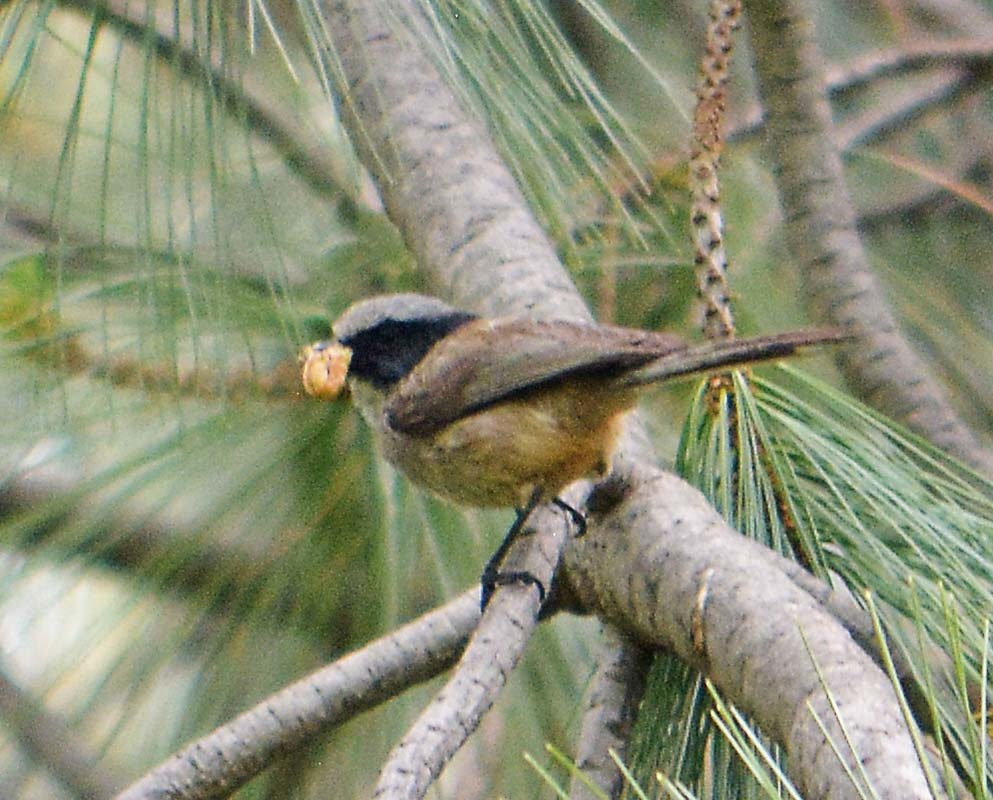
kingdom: Animalia
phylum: Chordata
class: Aves
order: Passeriformes
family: Aegithalidae
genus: Psaltriparus
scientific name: Psaltriparus minimus
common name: American bushtit
